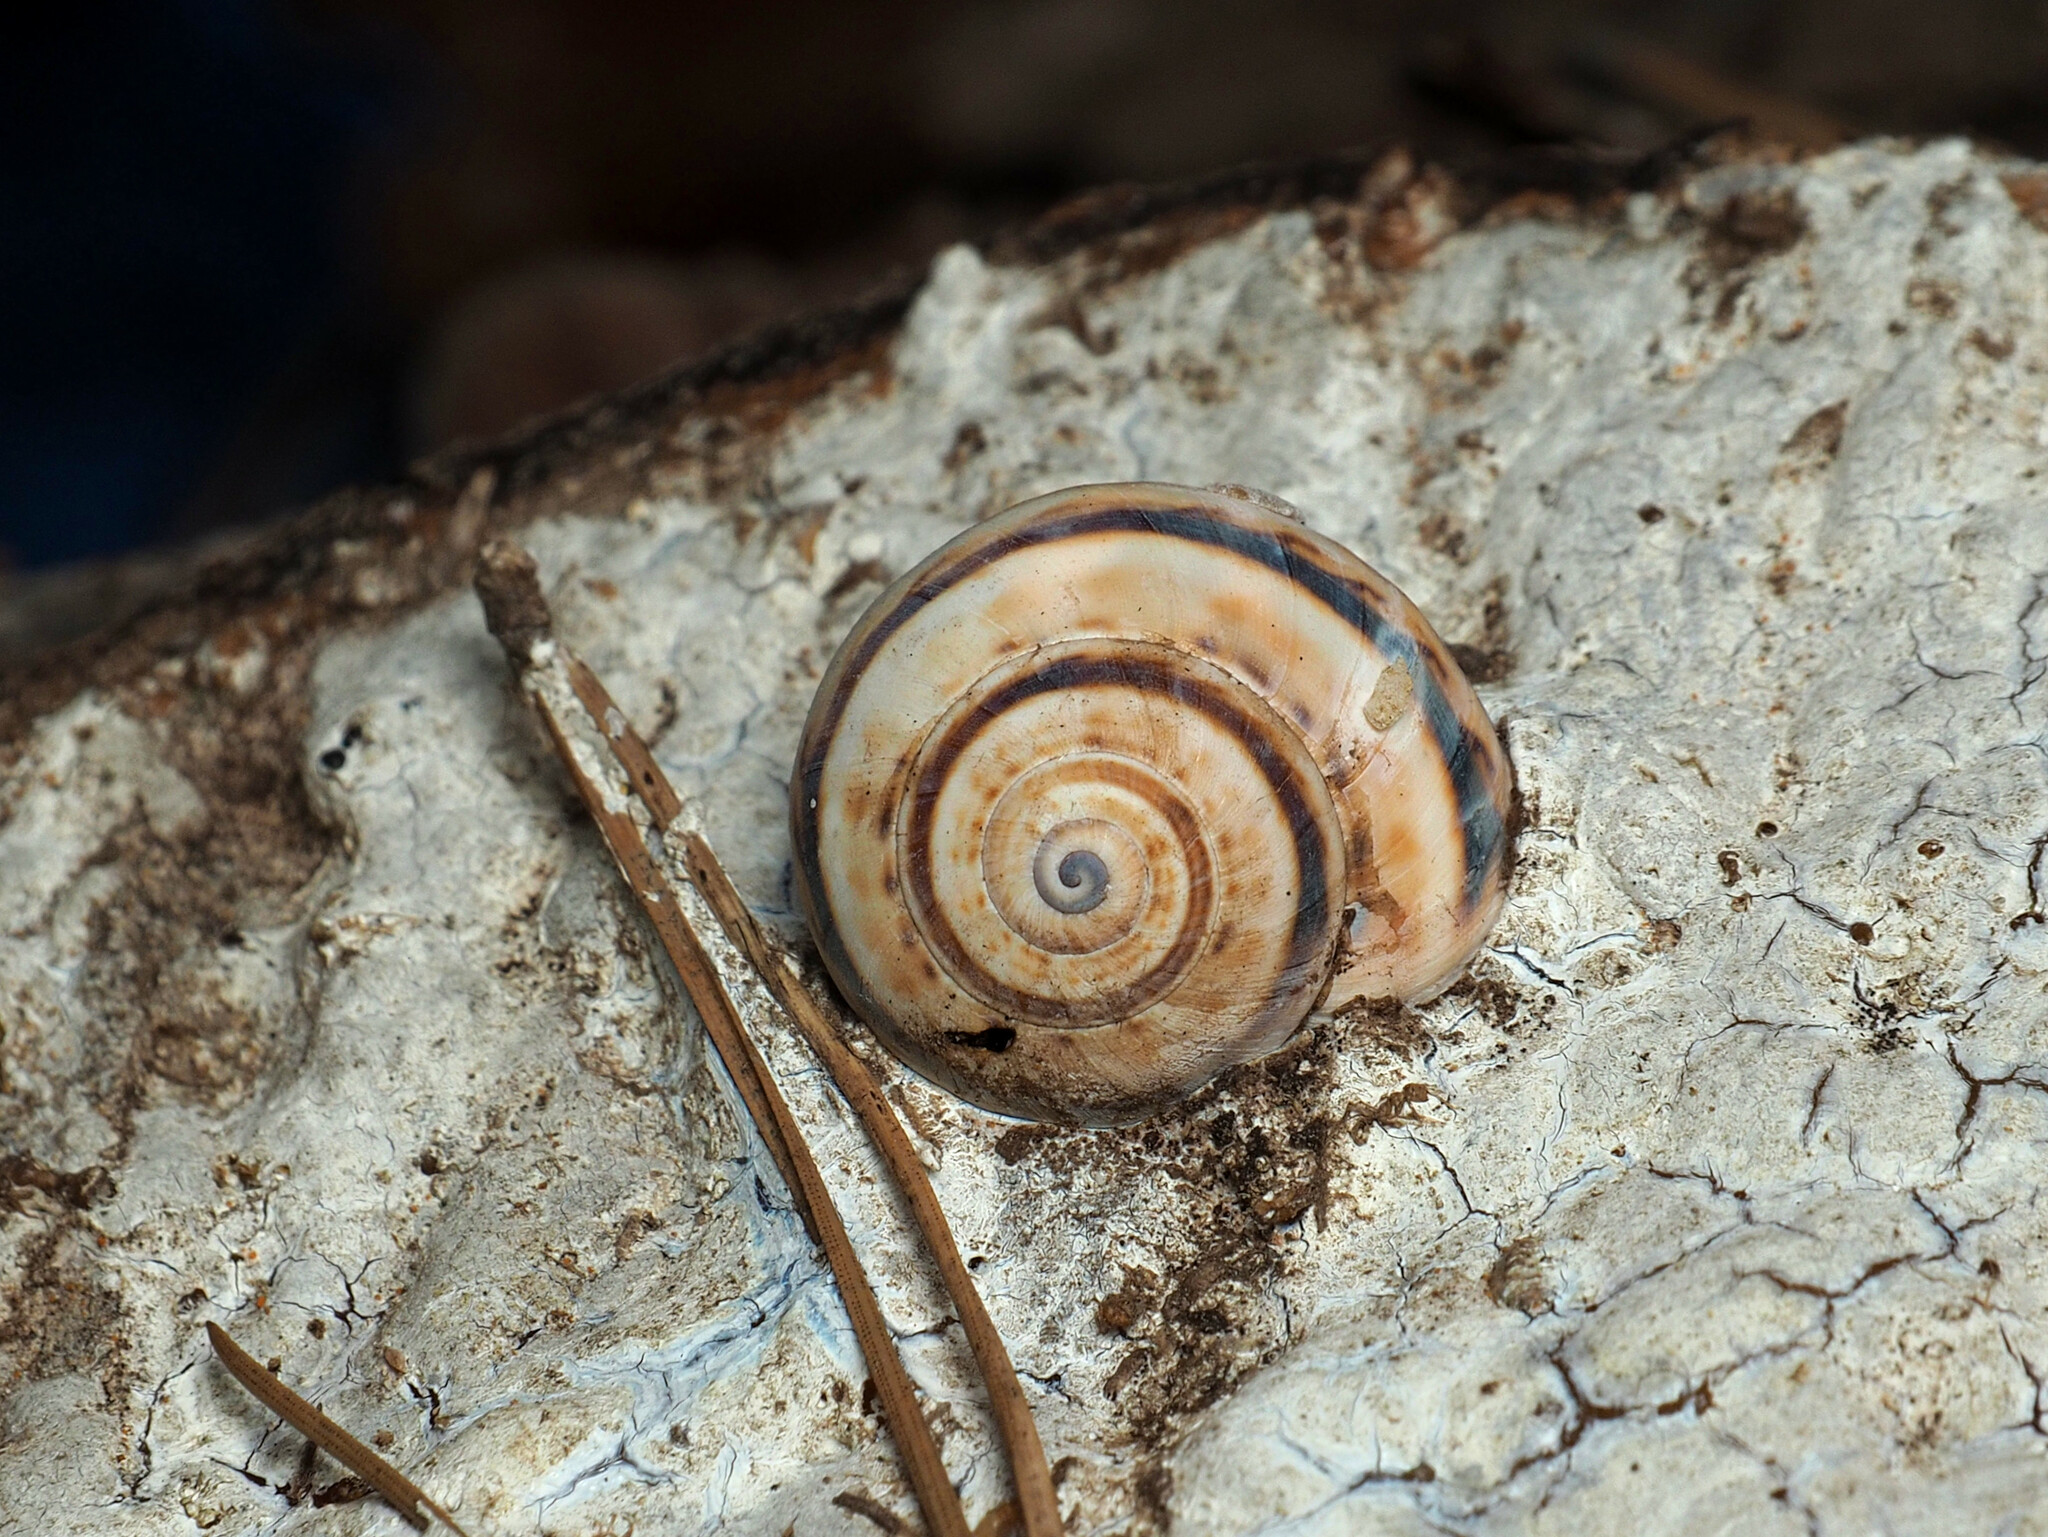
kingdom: Animalia
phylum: Mollusca
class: Gastropoda
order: Stylommatophora
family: Helicidae
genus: Theba
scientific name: Theba pisana
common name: White snail
